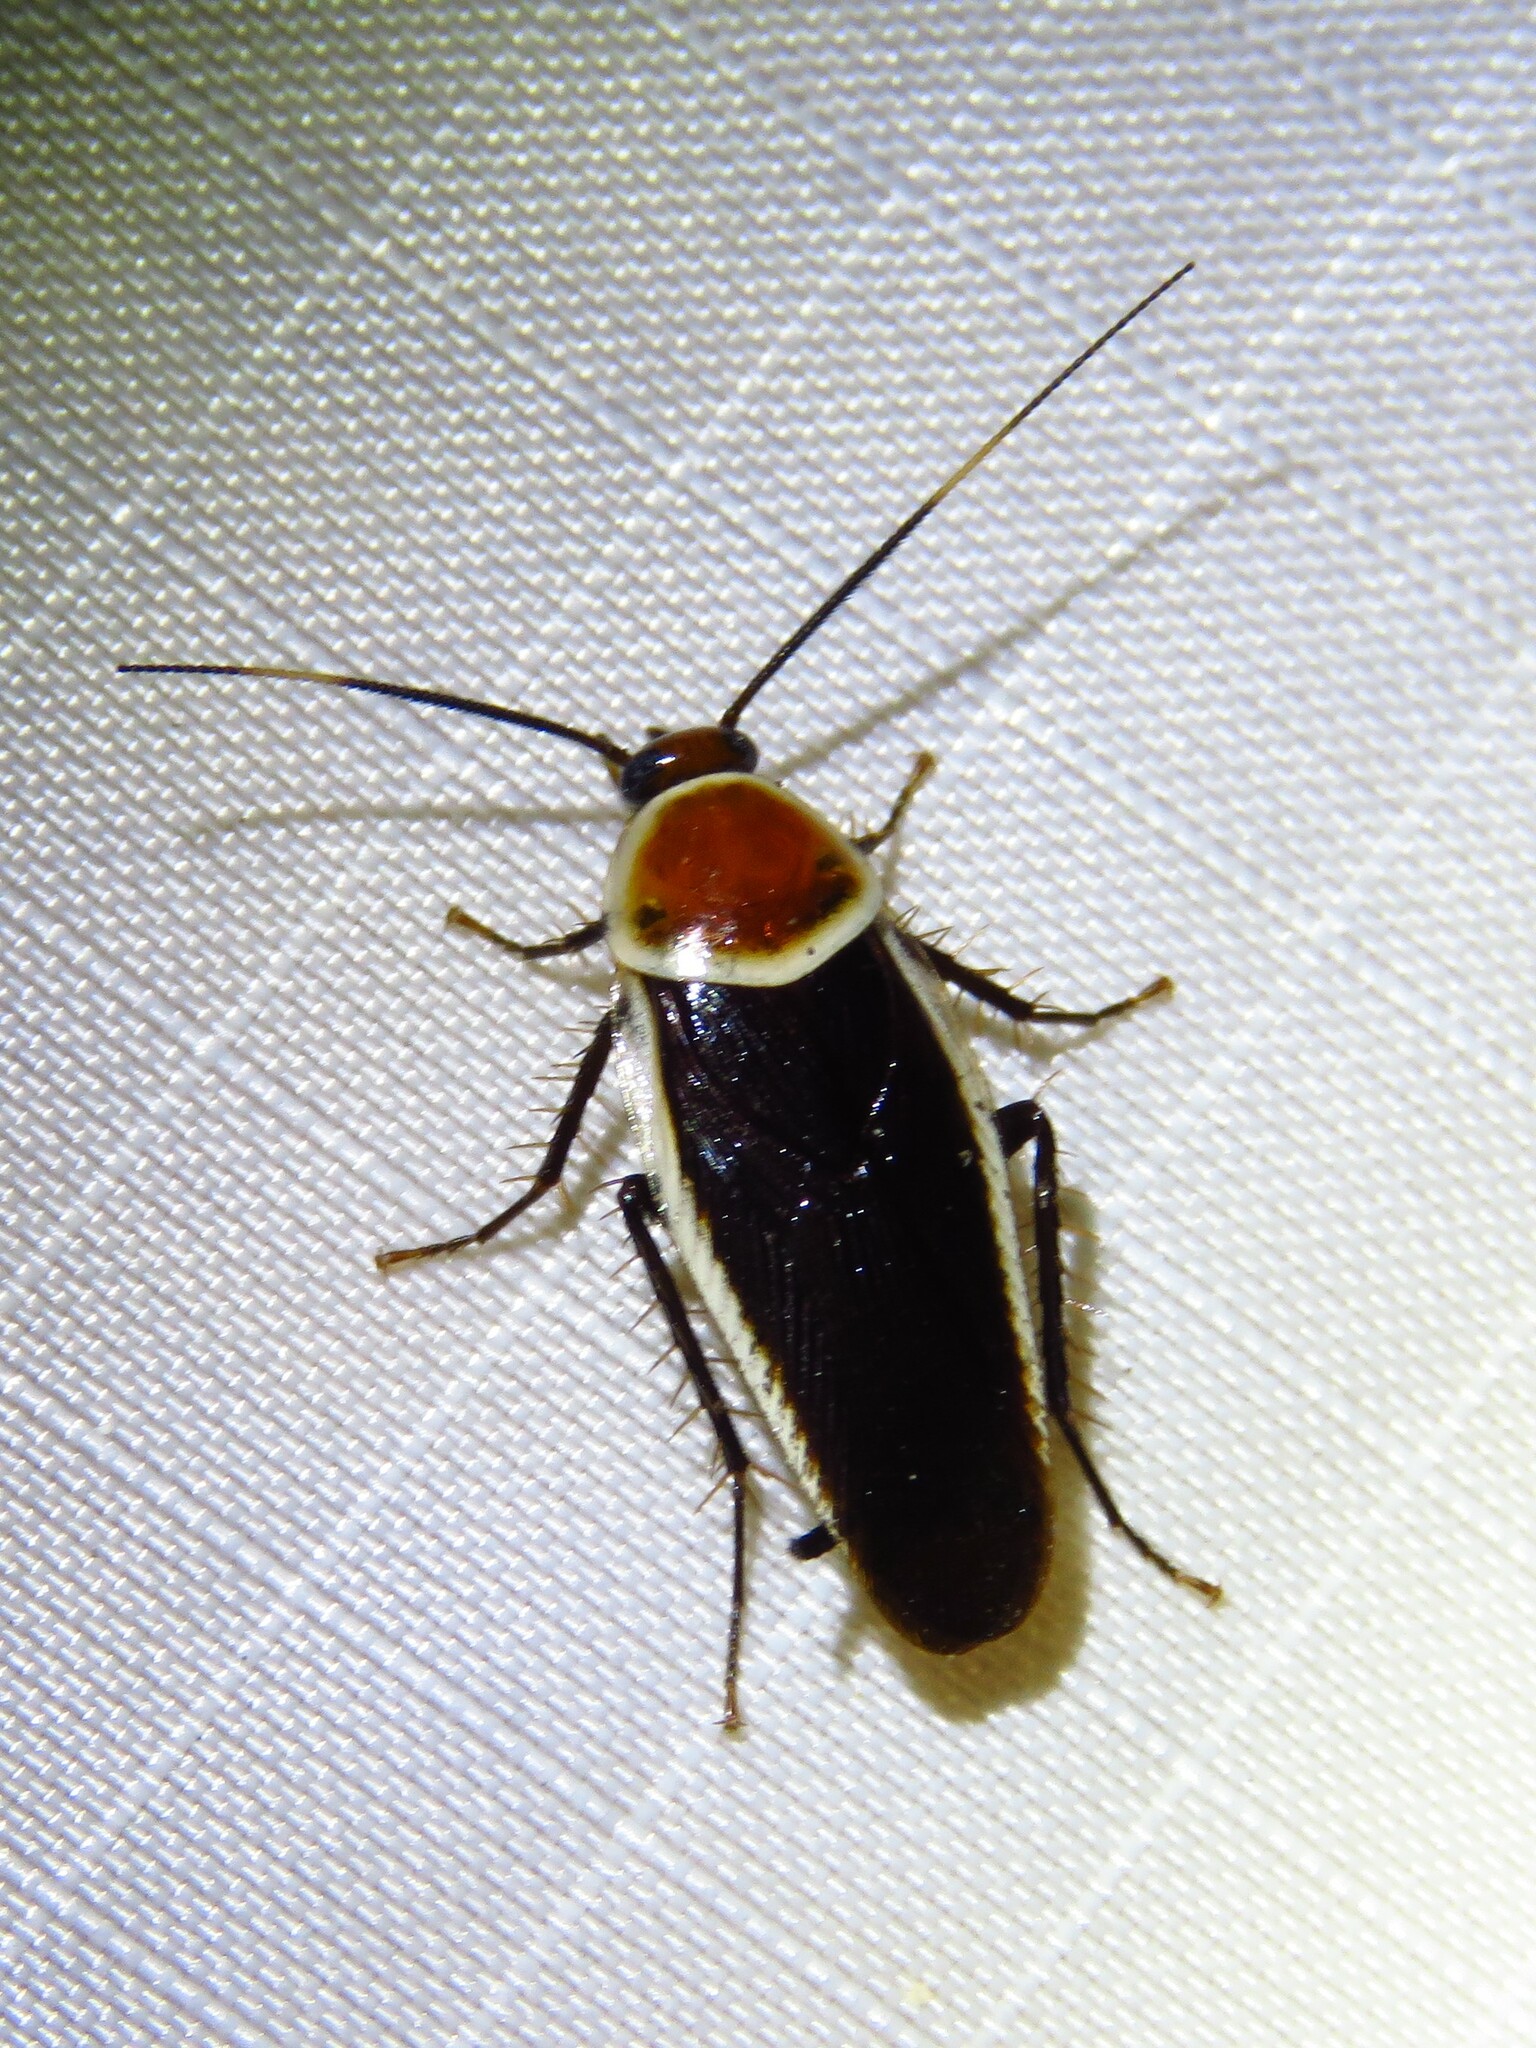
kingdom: Animalia
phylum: Arthropoda
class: Insecta
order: Blattodea
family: Ectobiidae
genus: Pseudomops
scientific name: Pseudomops septentrionalis
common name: Pale-bordered field cockroach
